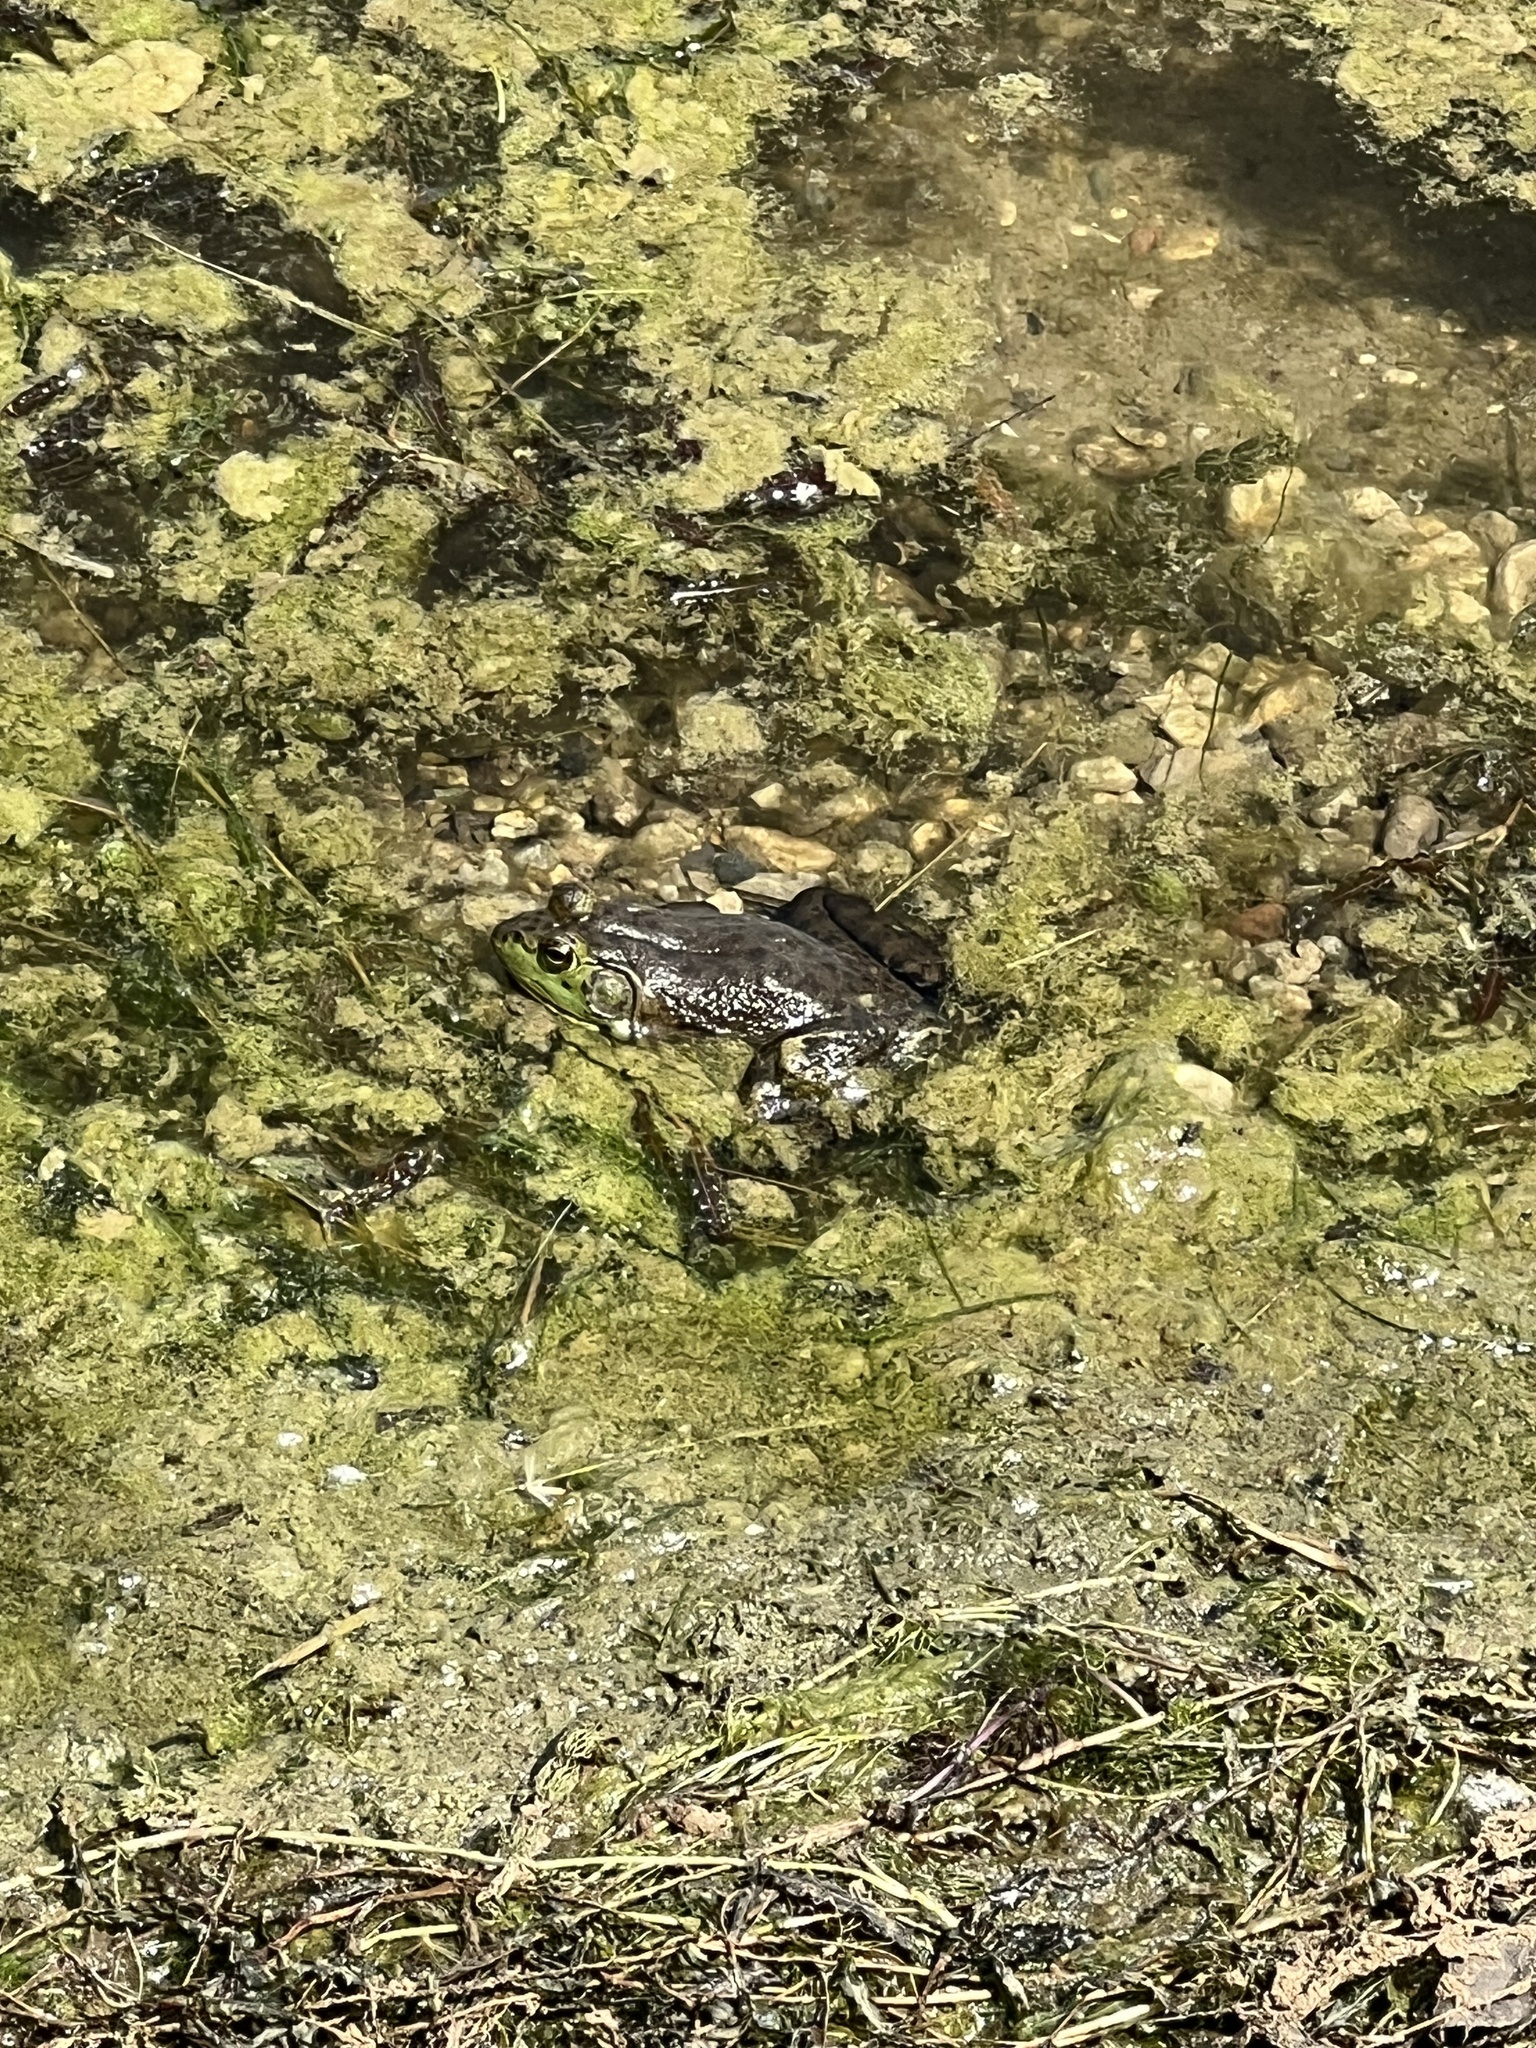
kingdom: Animalia
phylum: Chordata
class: Amphibia
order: Anura
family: Ranidae
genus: Lithobates
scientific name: Lithobates catesbeianus
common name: American bullfrog
